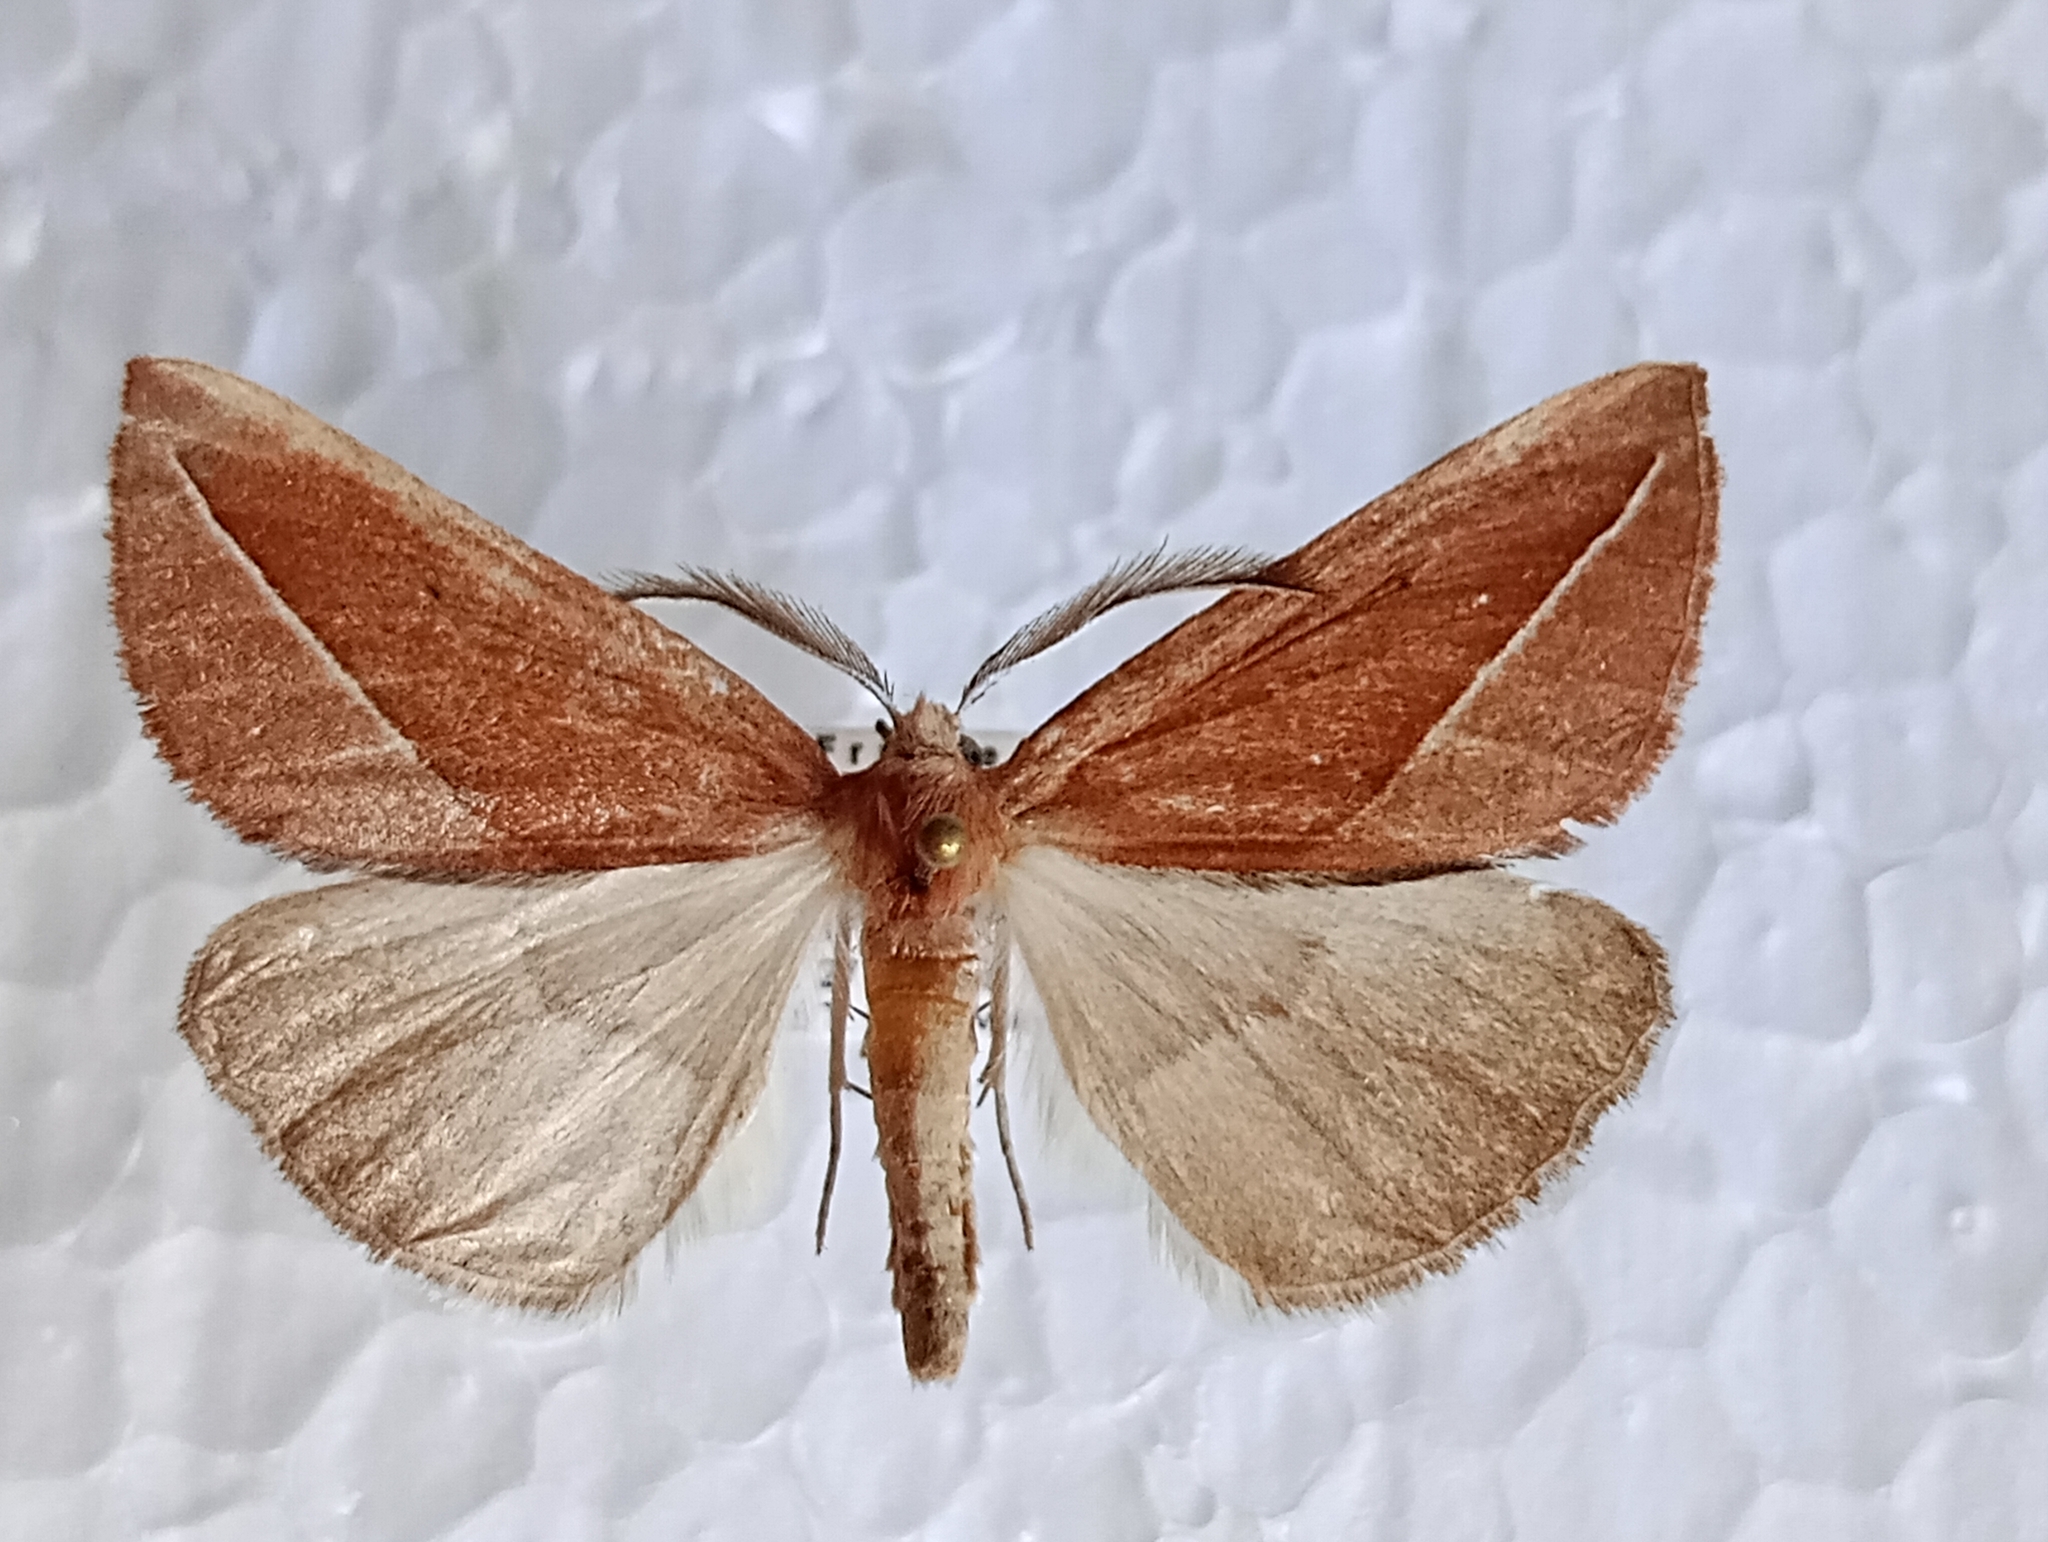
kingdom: Animalia
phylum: Arthropoda
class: Insecta
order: Lepidoptera
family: Geometridae
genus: Compsoptera
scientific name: Compsoptera opacaria
